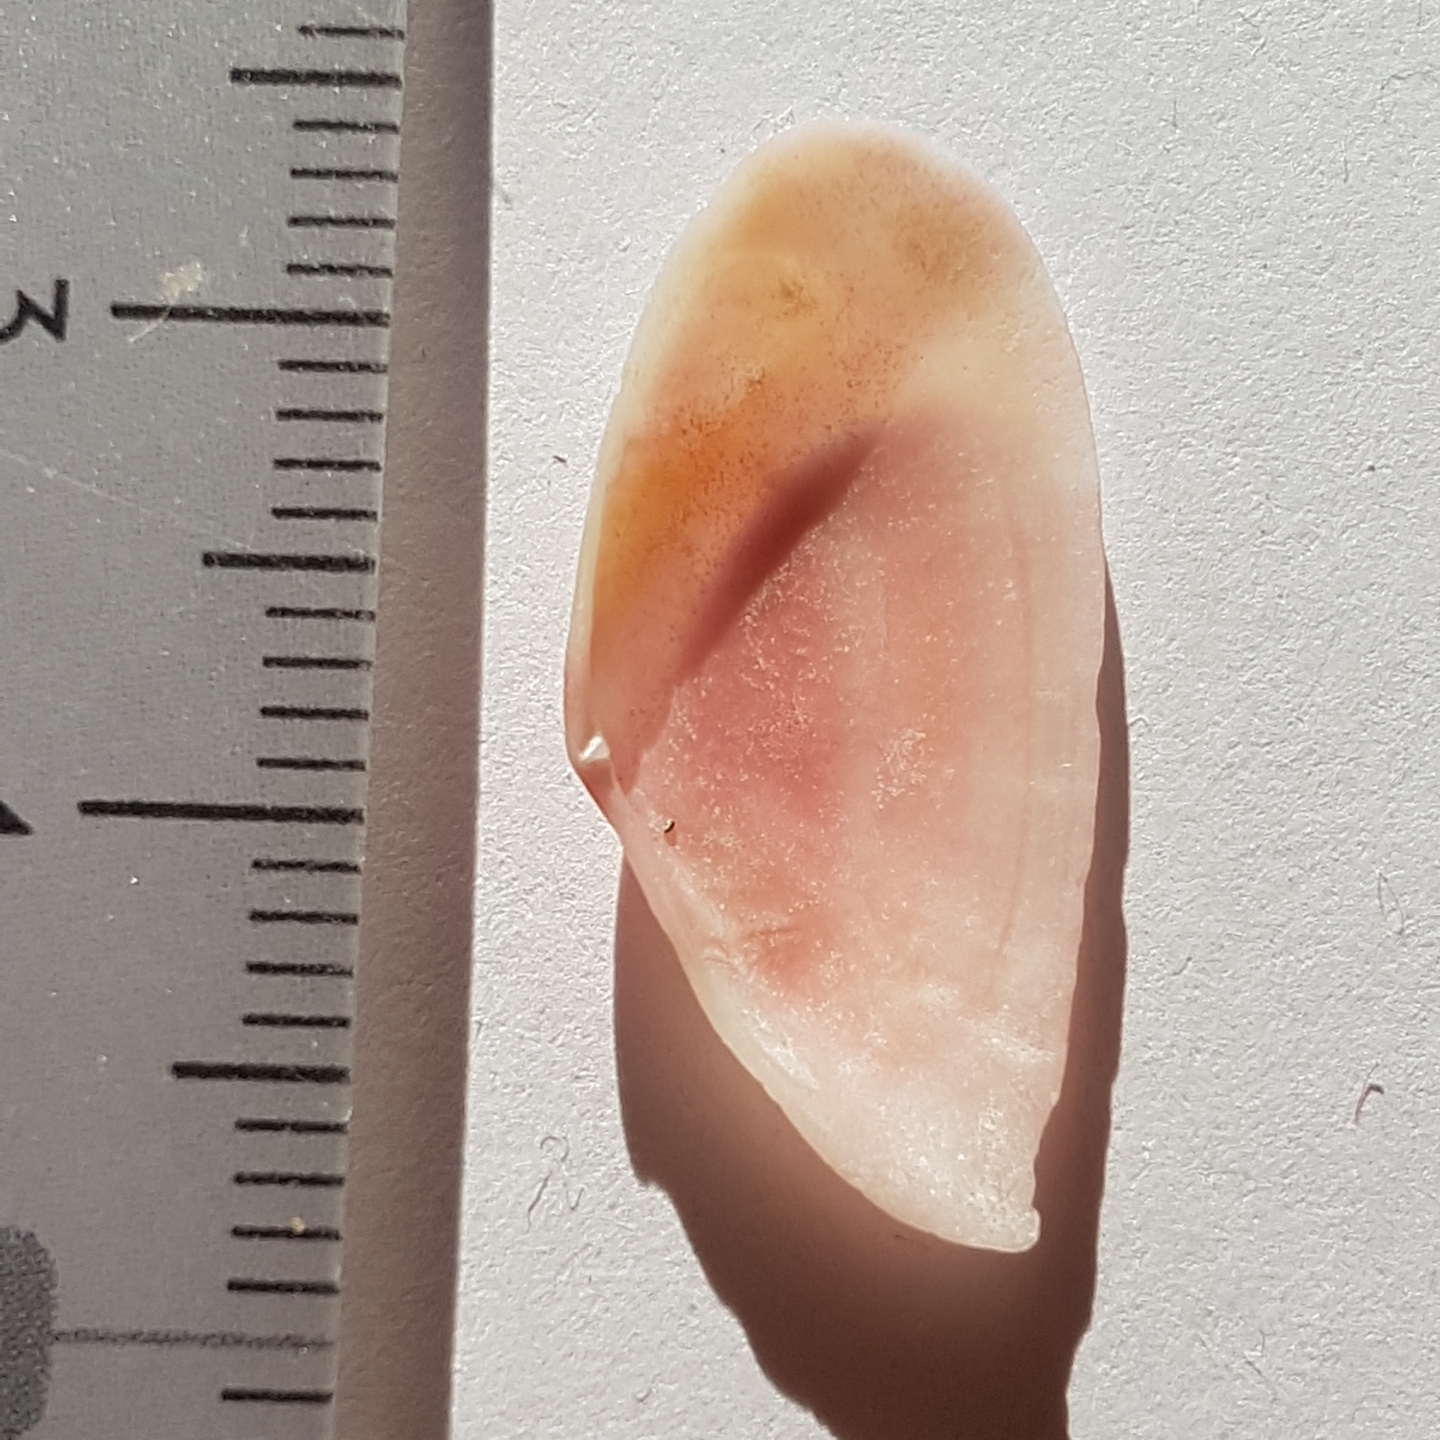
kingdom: Animalia
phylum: Mollusca
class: Bivalvia
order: Cardiida
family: Tellinidae
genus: Moerella
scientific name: Moerella pulchella
